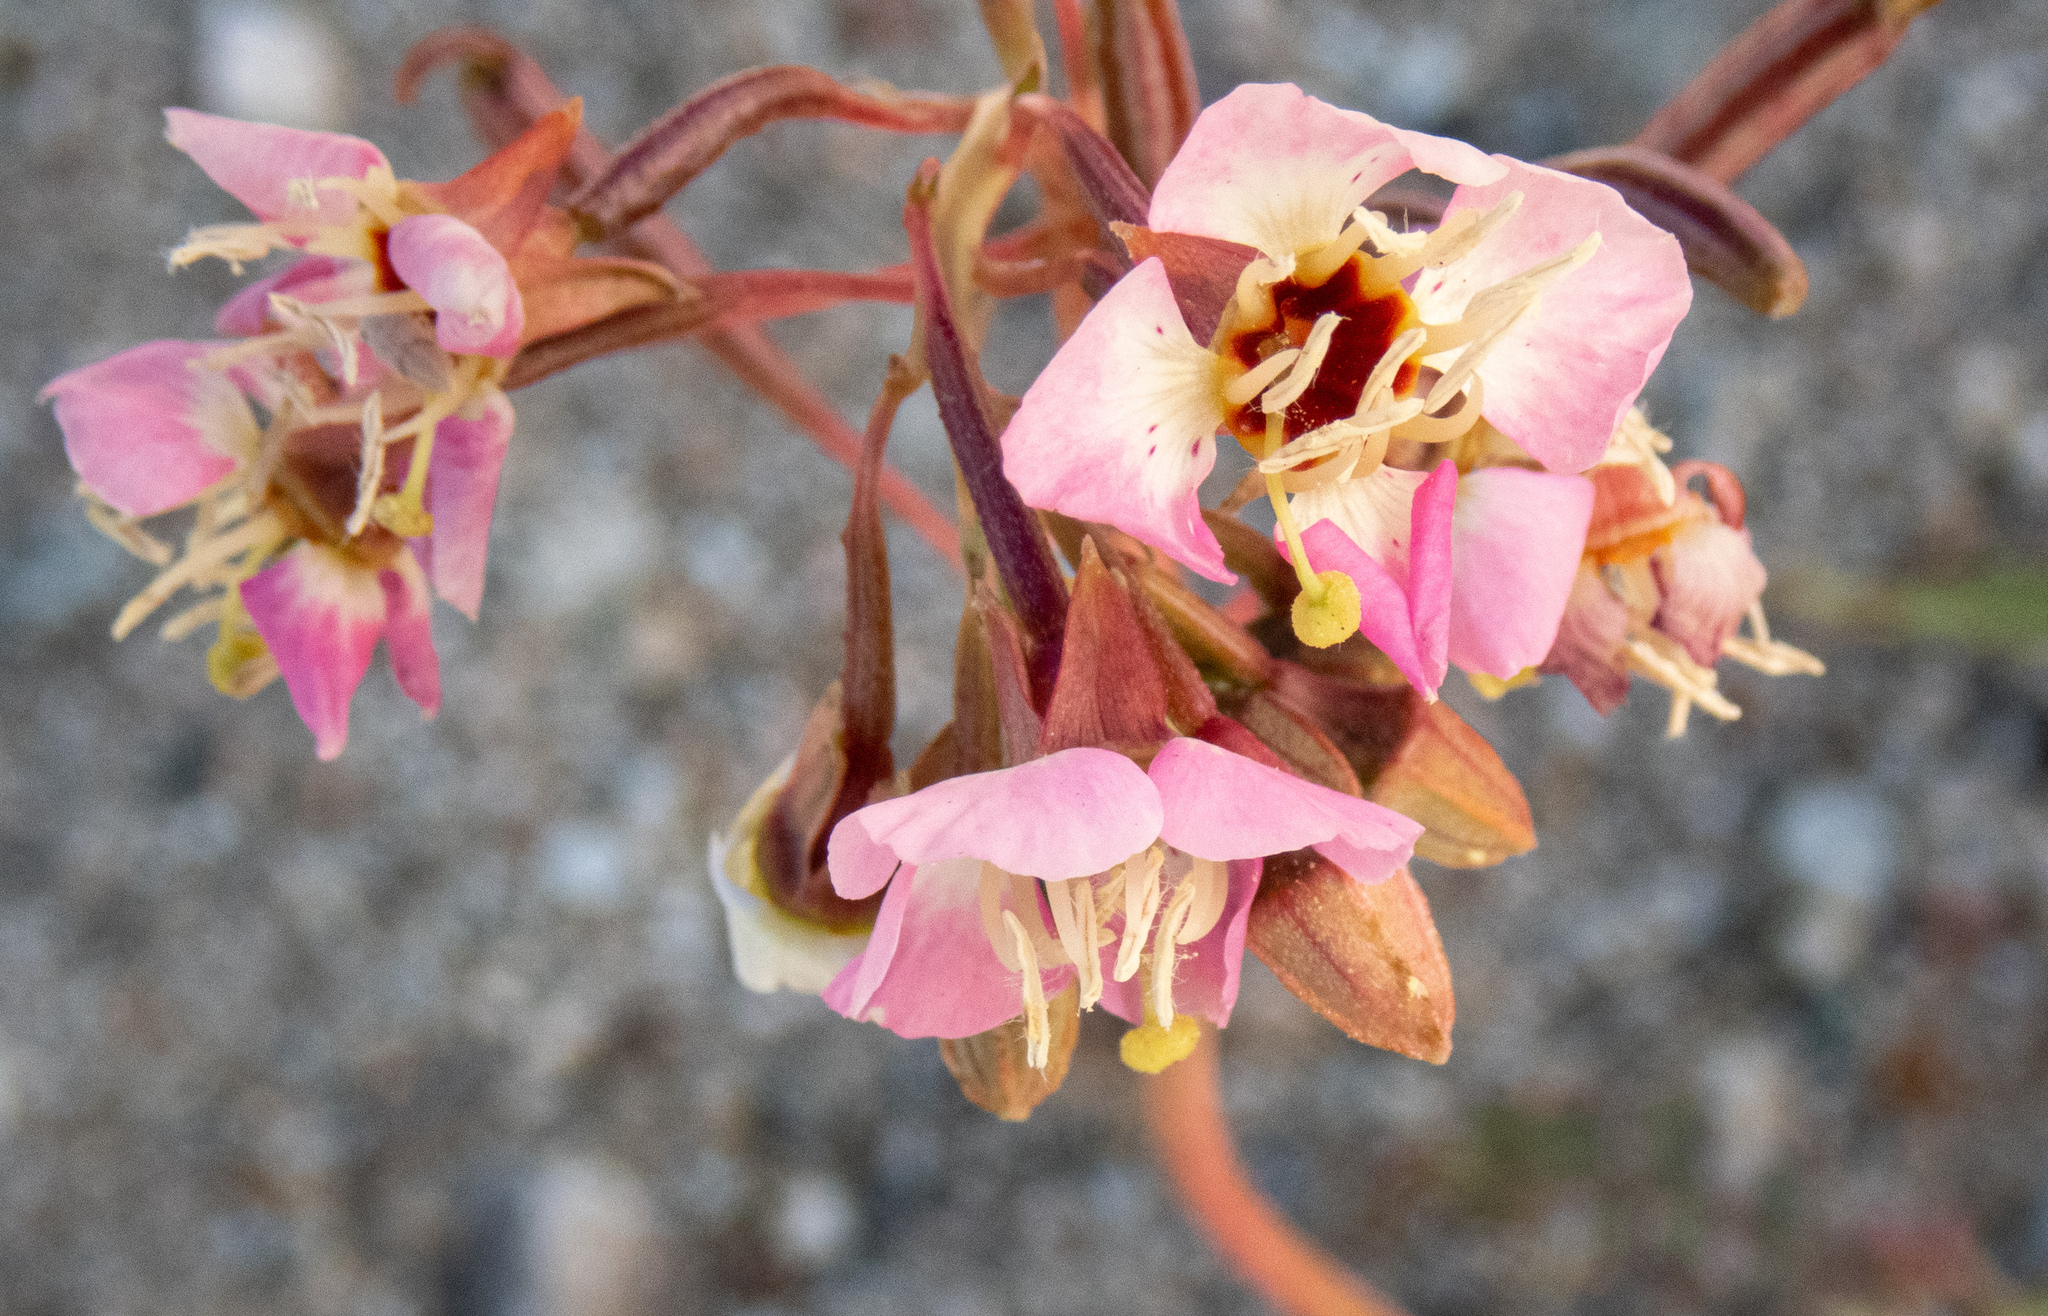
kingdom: Plantae
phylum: Tracheophyta
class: Magnoliopsida
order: Myrtales
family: Onagraceae
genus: Chylismia
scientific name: Chylismia claviformis
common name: Browneyes
